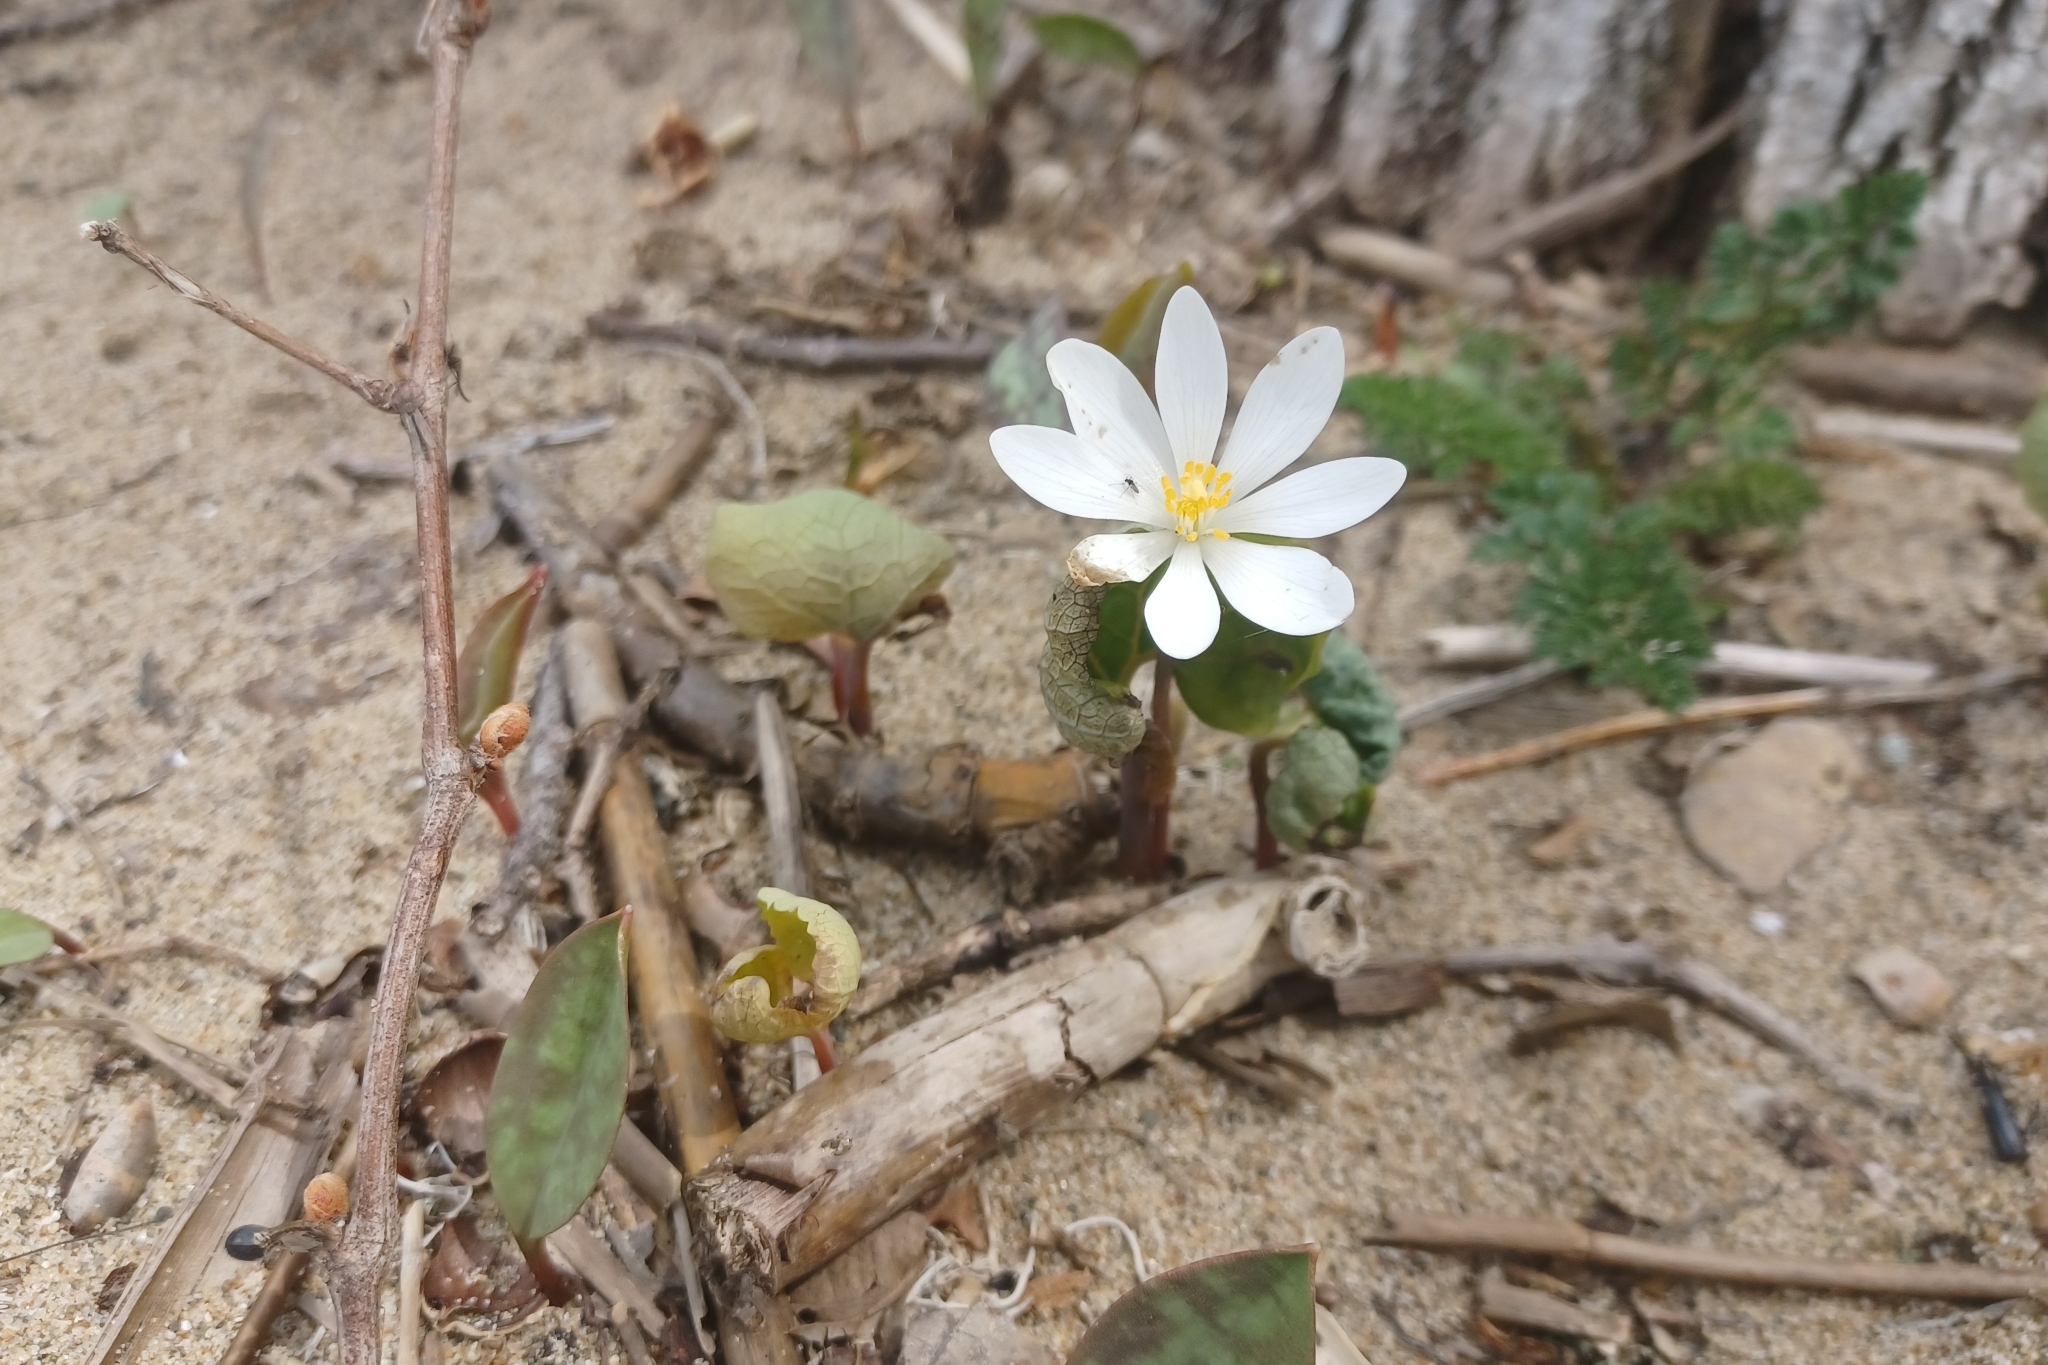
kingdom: Plantae
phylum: Tracheophyta
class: Magnoliopsida
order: Ranunculales
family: Papaveraceae
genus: Sanguinaria
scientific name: Sanguinaria canadensis
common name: Bloodroot
